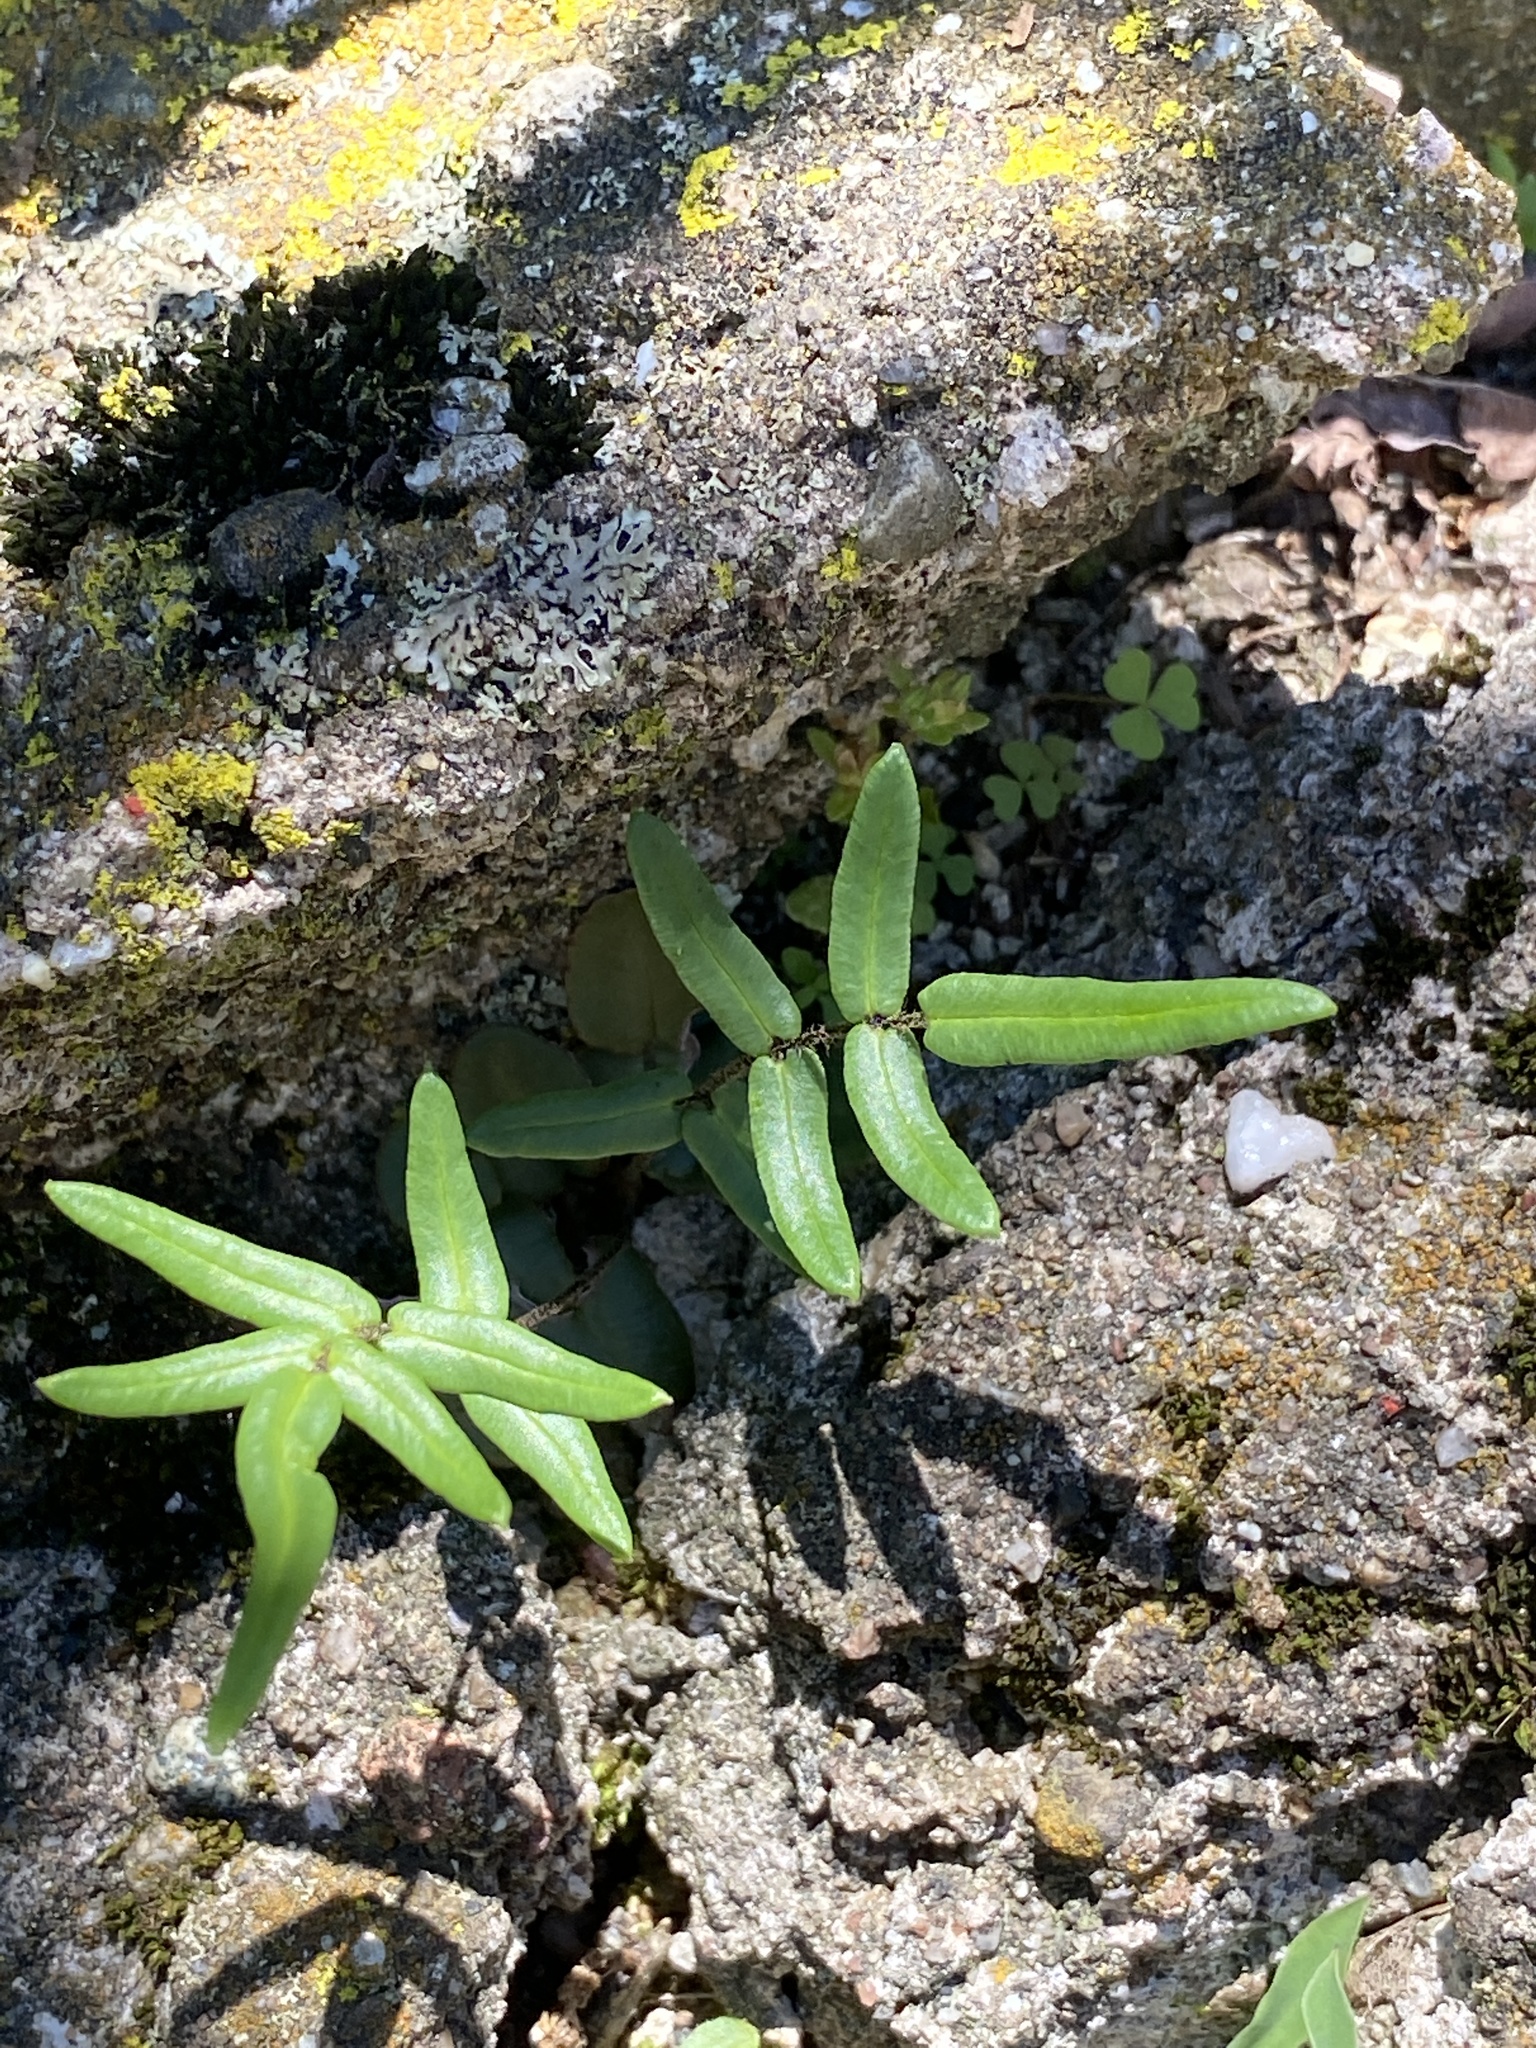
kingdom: Plantae
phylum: Tracheophyta
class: Polypodiopsida
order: Polypodiales
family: Pteridaceae
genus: Pellaea
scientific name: Pellaea atropurpurea
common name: Hairy cliffbrake
